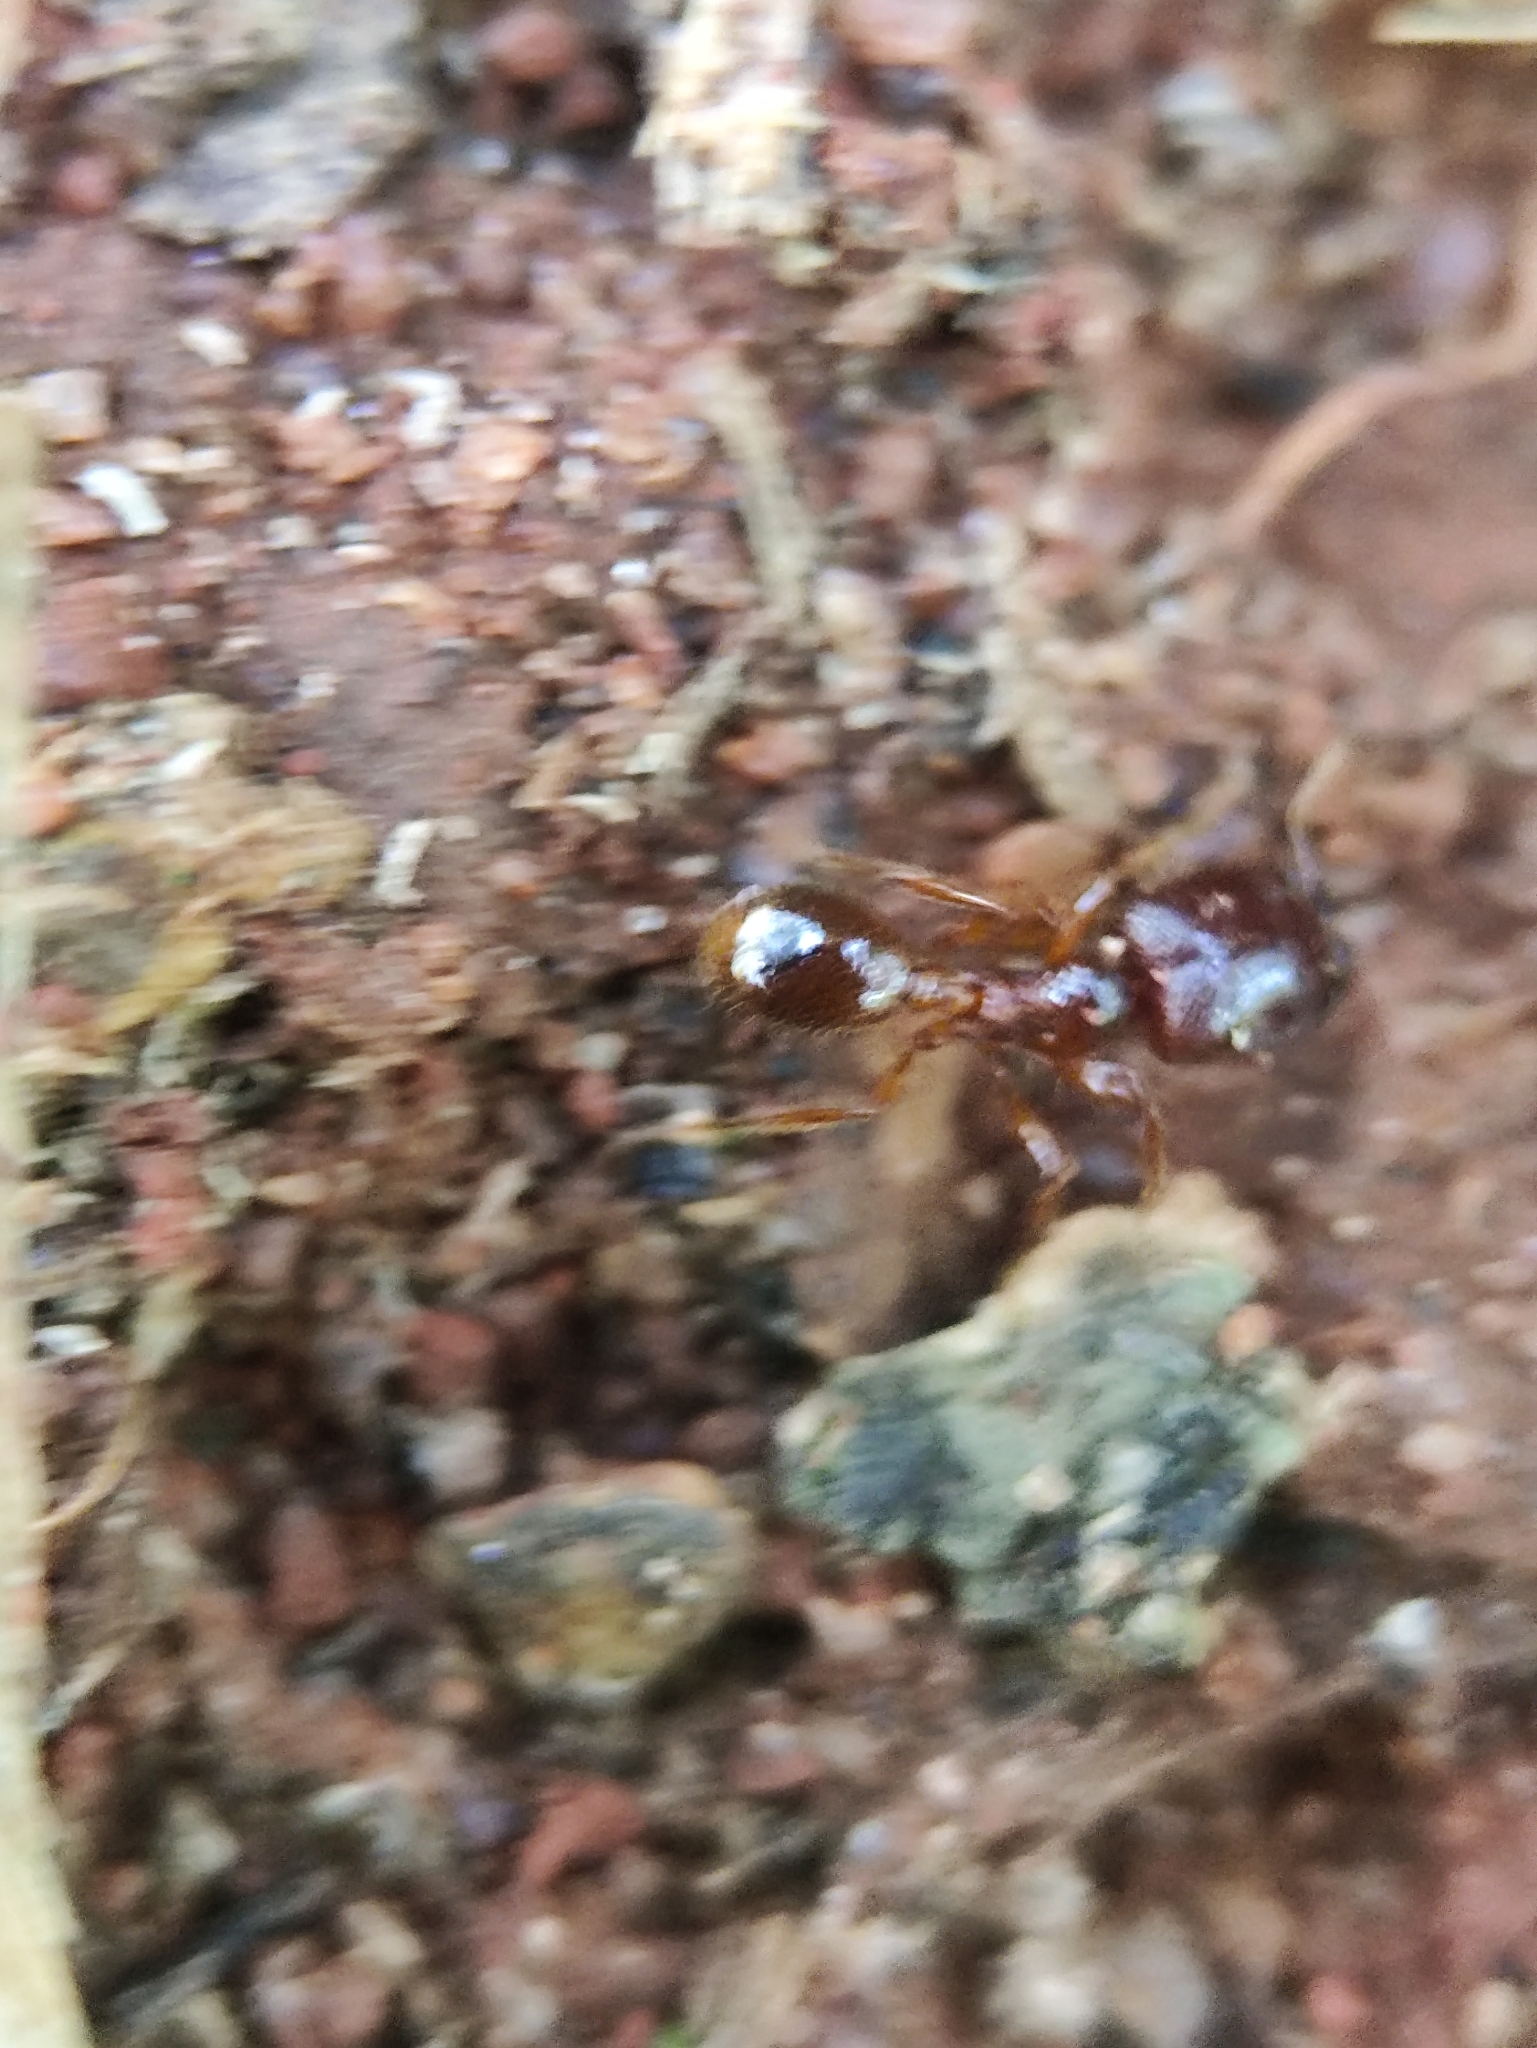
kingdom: Animalia
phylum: Arthropoda
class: Insecta
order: Hymenoptera
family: Formicidae
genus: Carebara
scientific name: Carebara affinis
